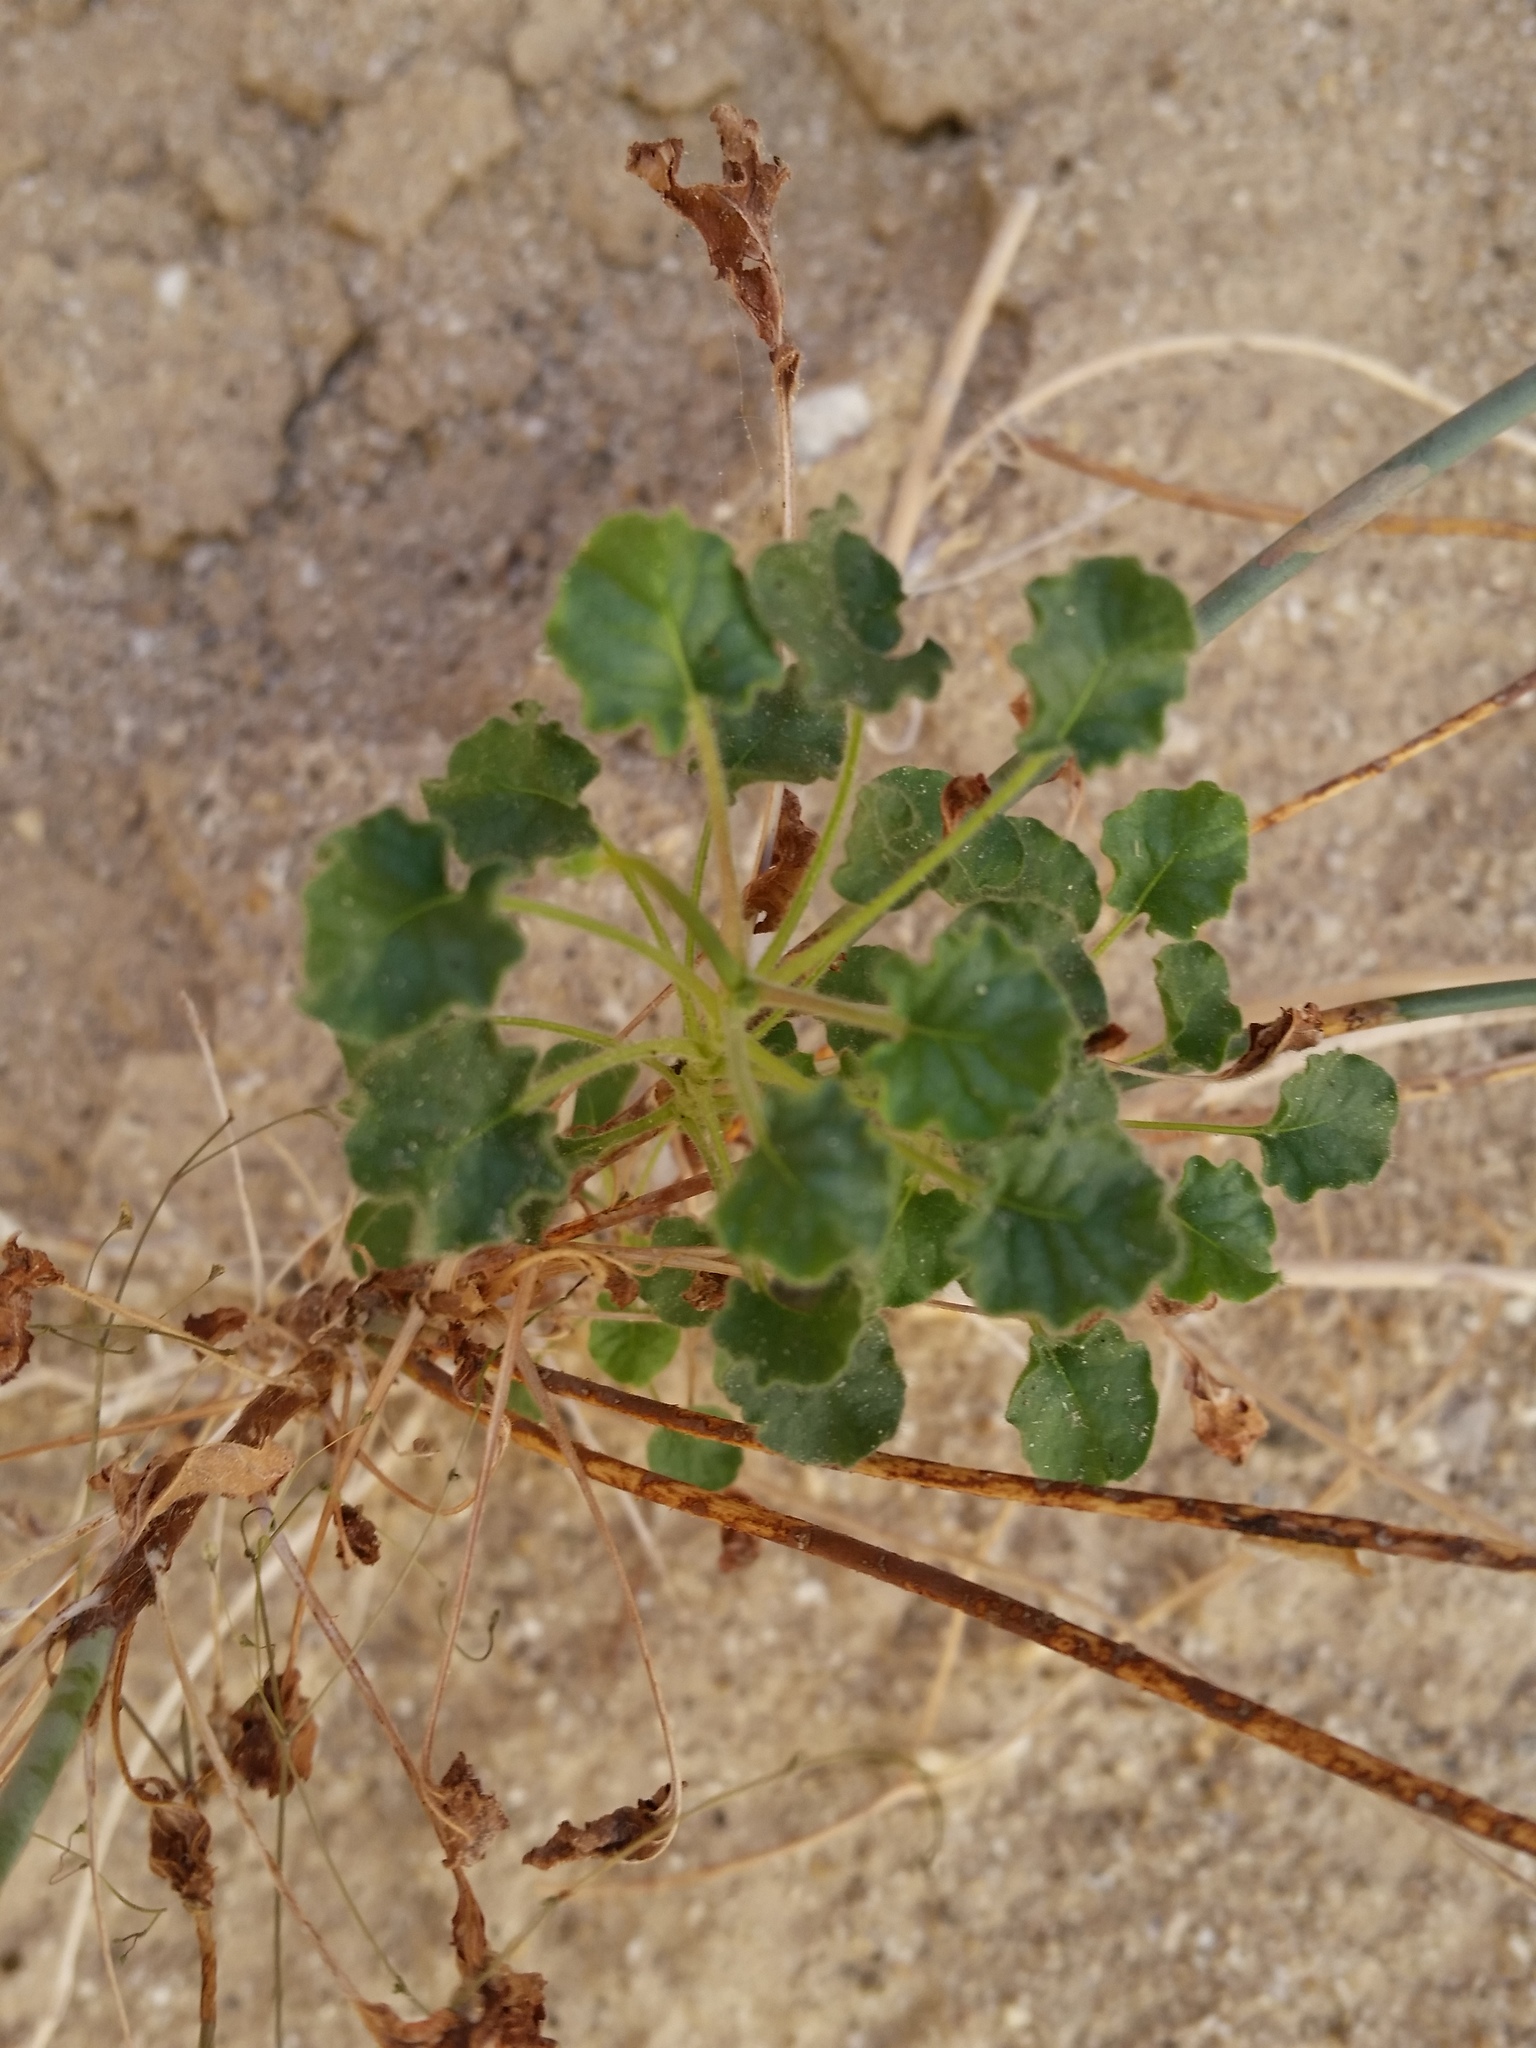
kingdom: Plantae
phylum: Tracheophyta
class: Magnoliopsida
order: Caryophyllales
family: Polygonaceae
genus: Eriogonum
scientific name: Eriogonum trichopes
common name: Little desert trumpet
